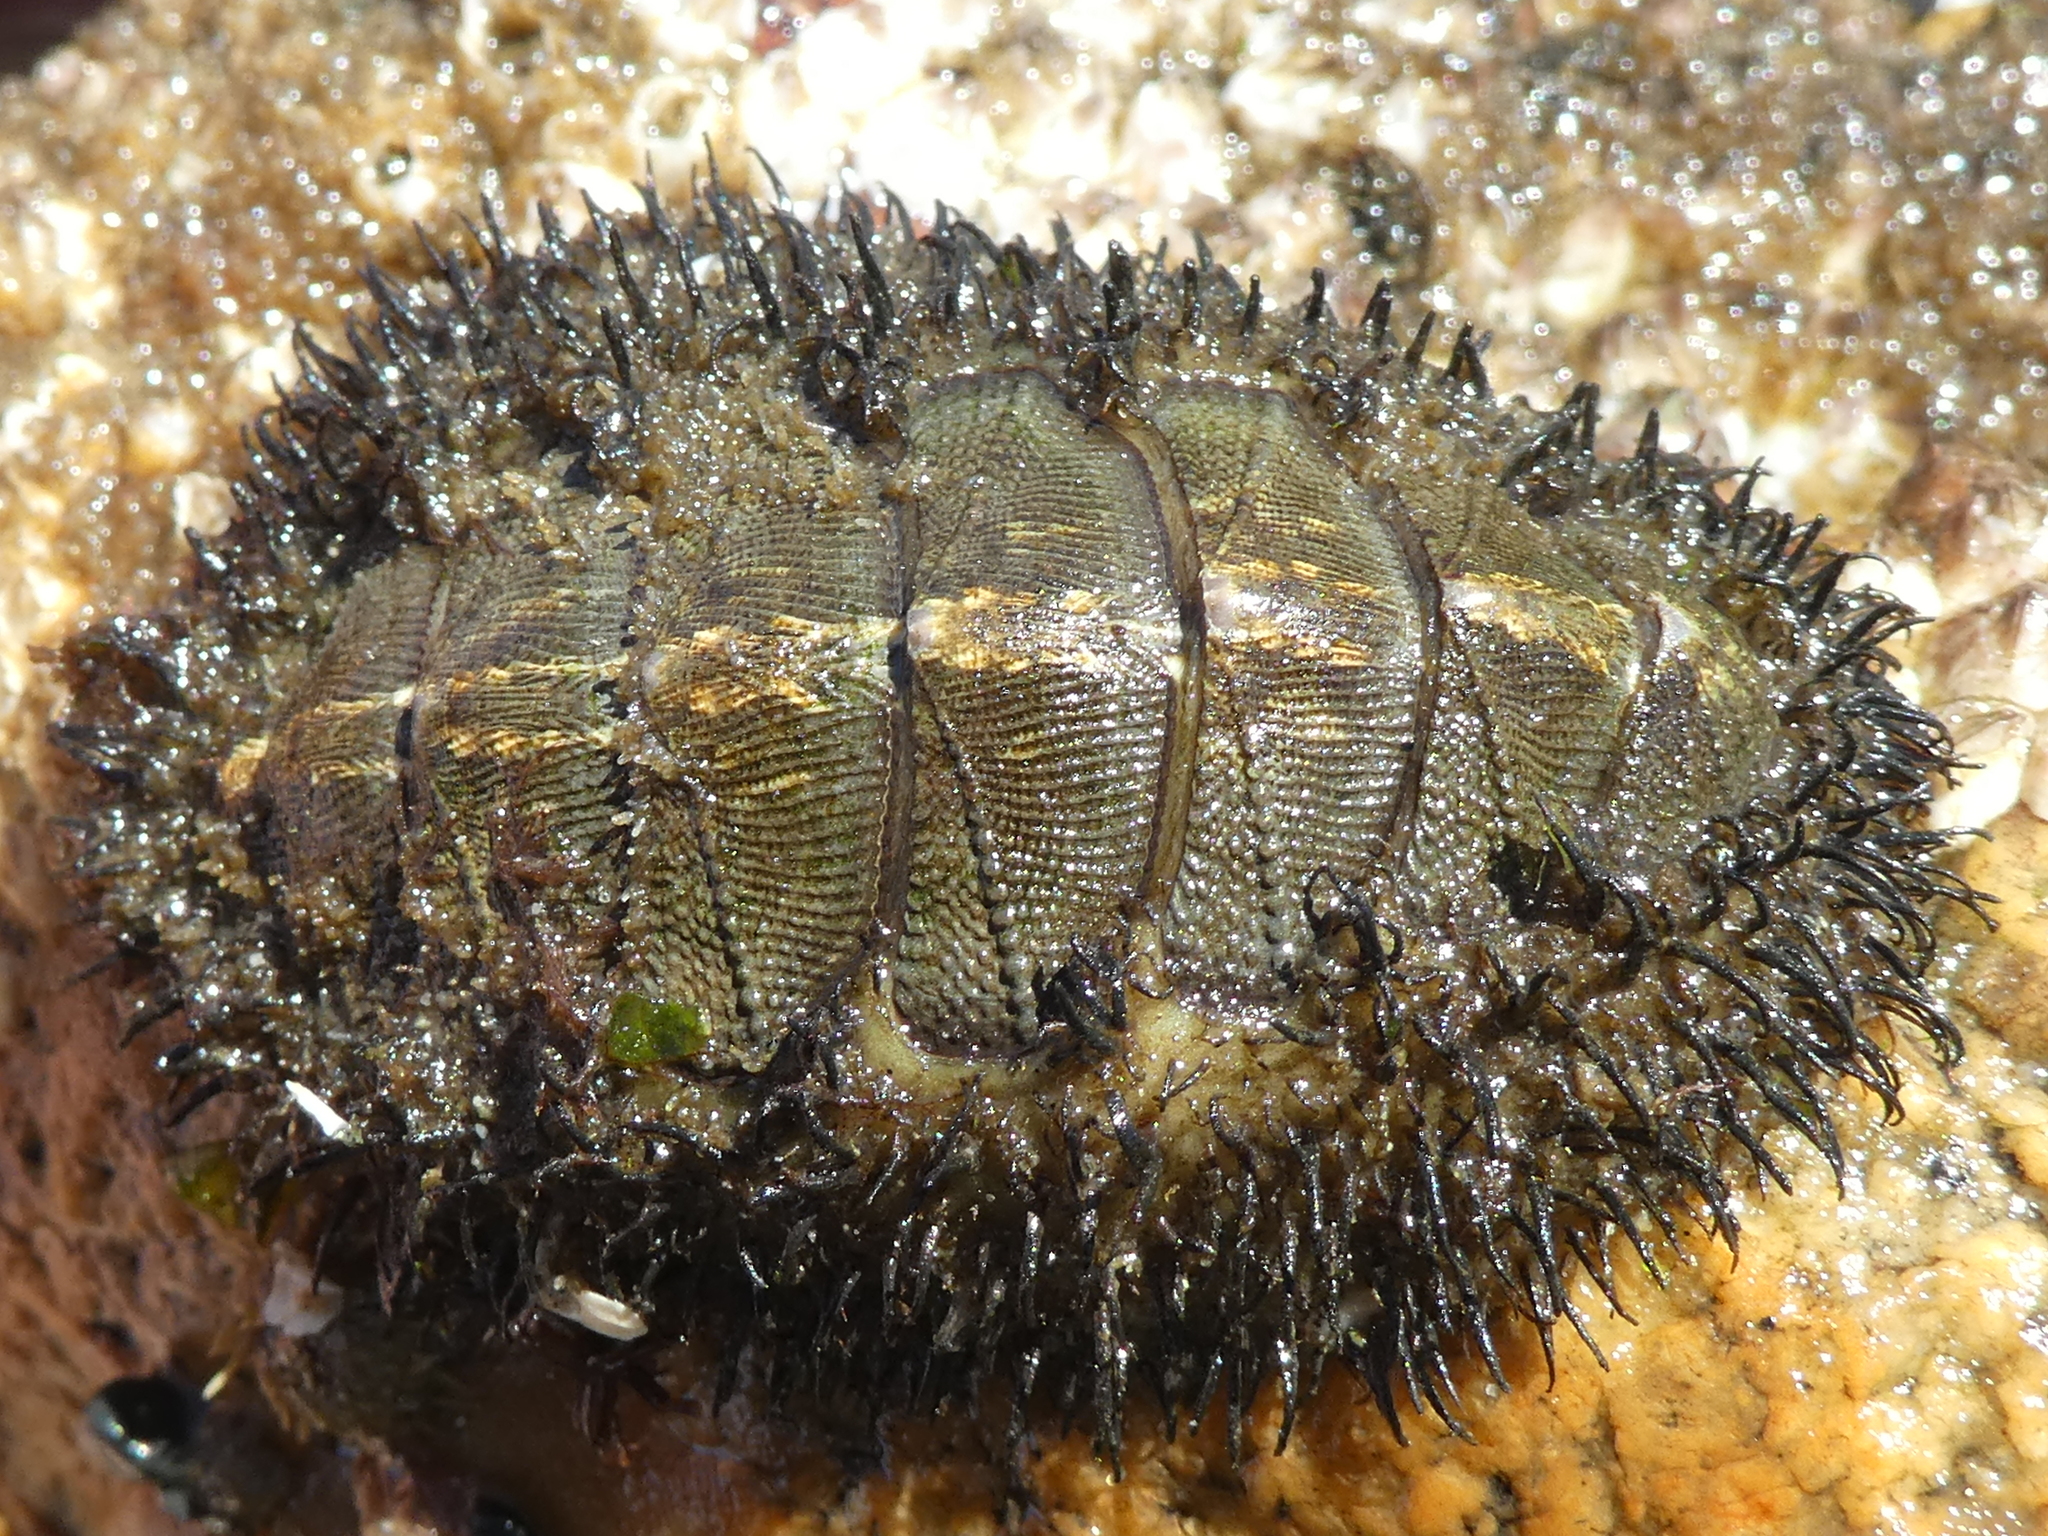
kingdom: Animalia
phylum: Mollusca
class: Polyplacophora
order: Chitonida
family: Mopaliidae
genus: Mopalia
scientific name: Mopalia muscosa
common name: Mossy chiton
